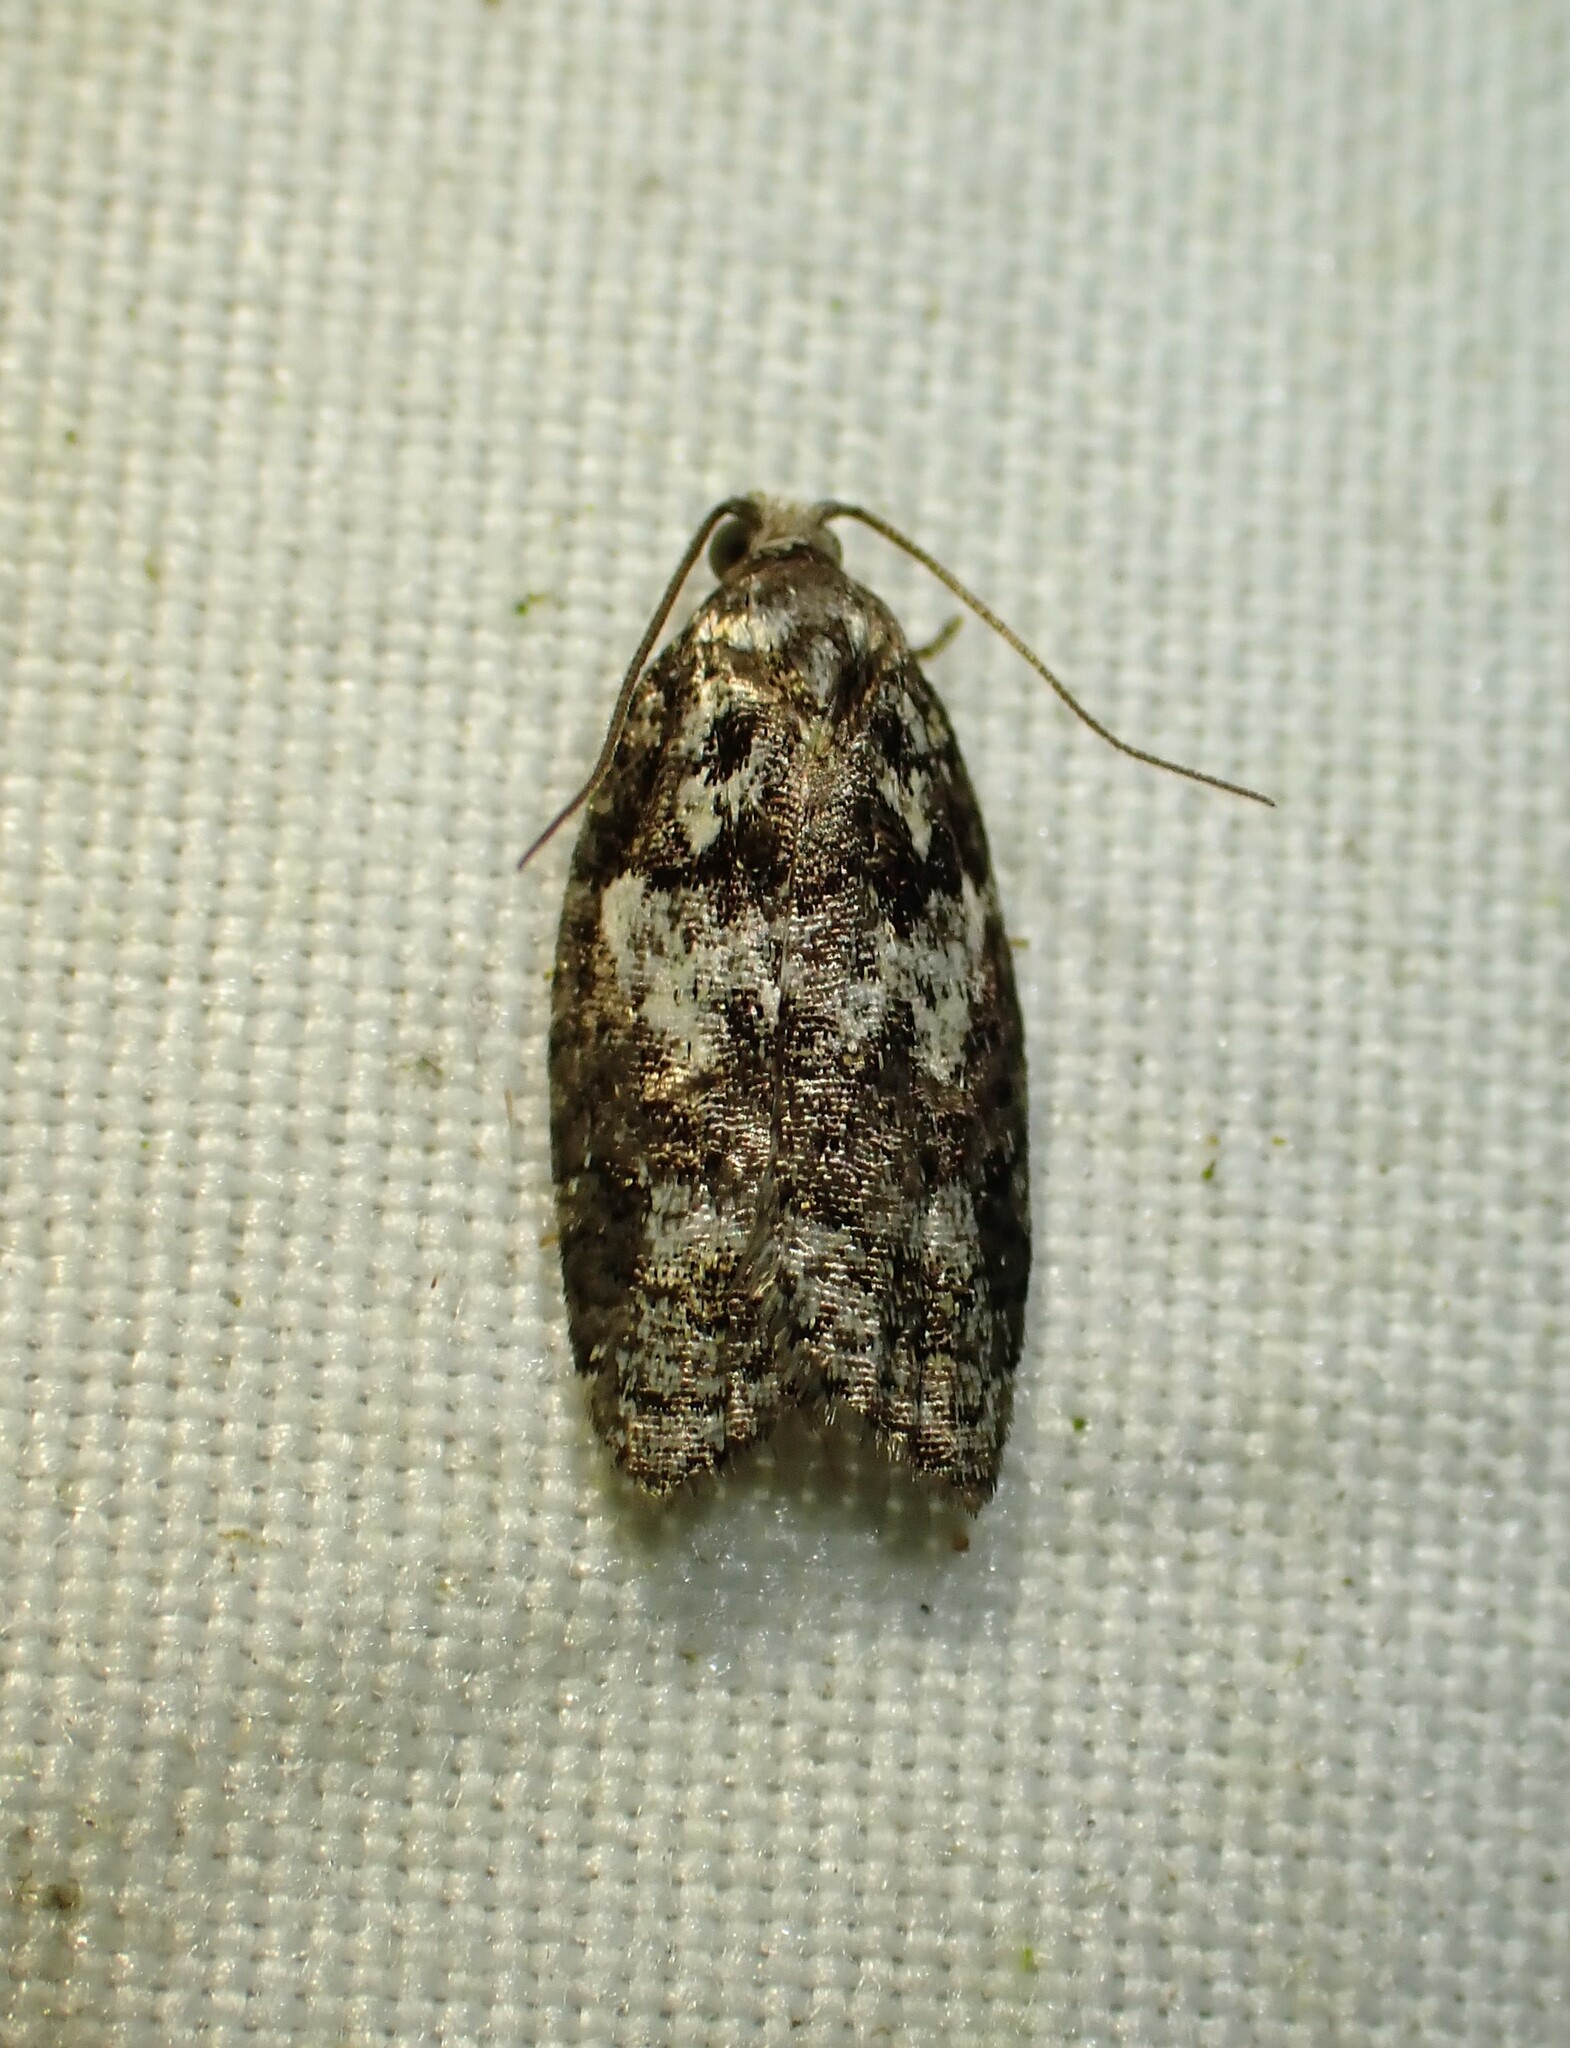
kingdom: Animalia
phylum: Arthropoda
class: Insecta
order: Lepidoptera
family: Tortricidae
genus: Acleris
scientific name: Acleris variana
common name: Eastern black-headed budworm moth
